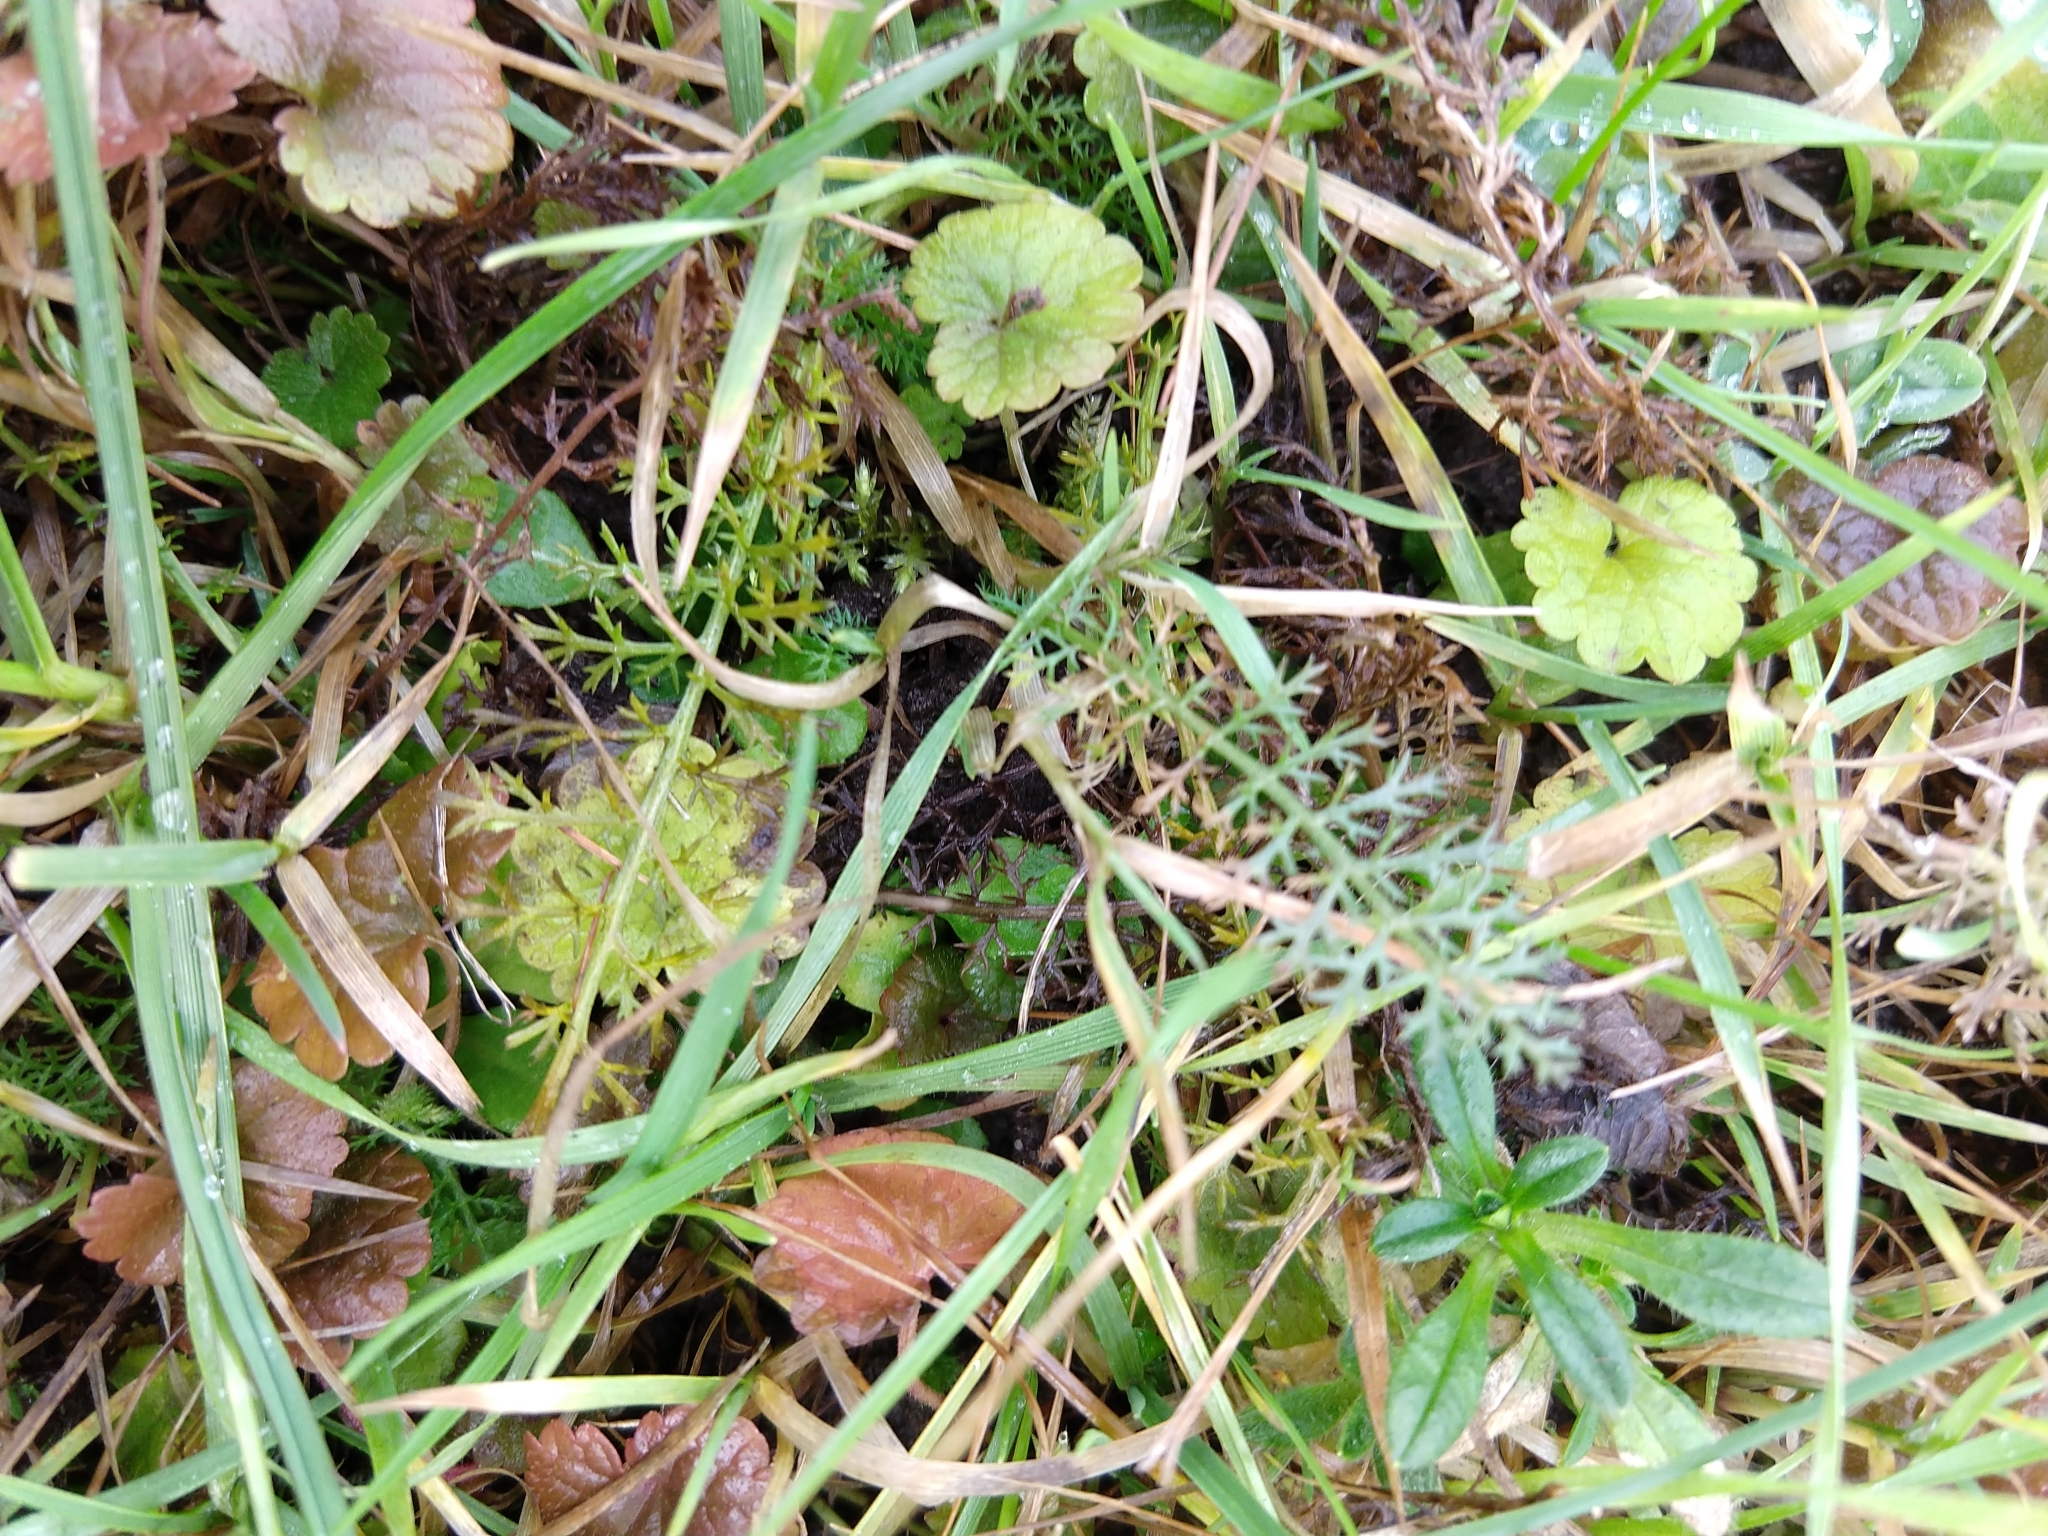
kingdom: Plantae
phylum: Tracheophyta
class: Magnoliopsida
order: Asterales
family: Asteraceae
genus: Achillea
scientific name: Achillea millefolium
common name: Yarrow
